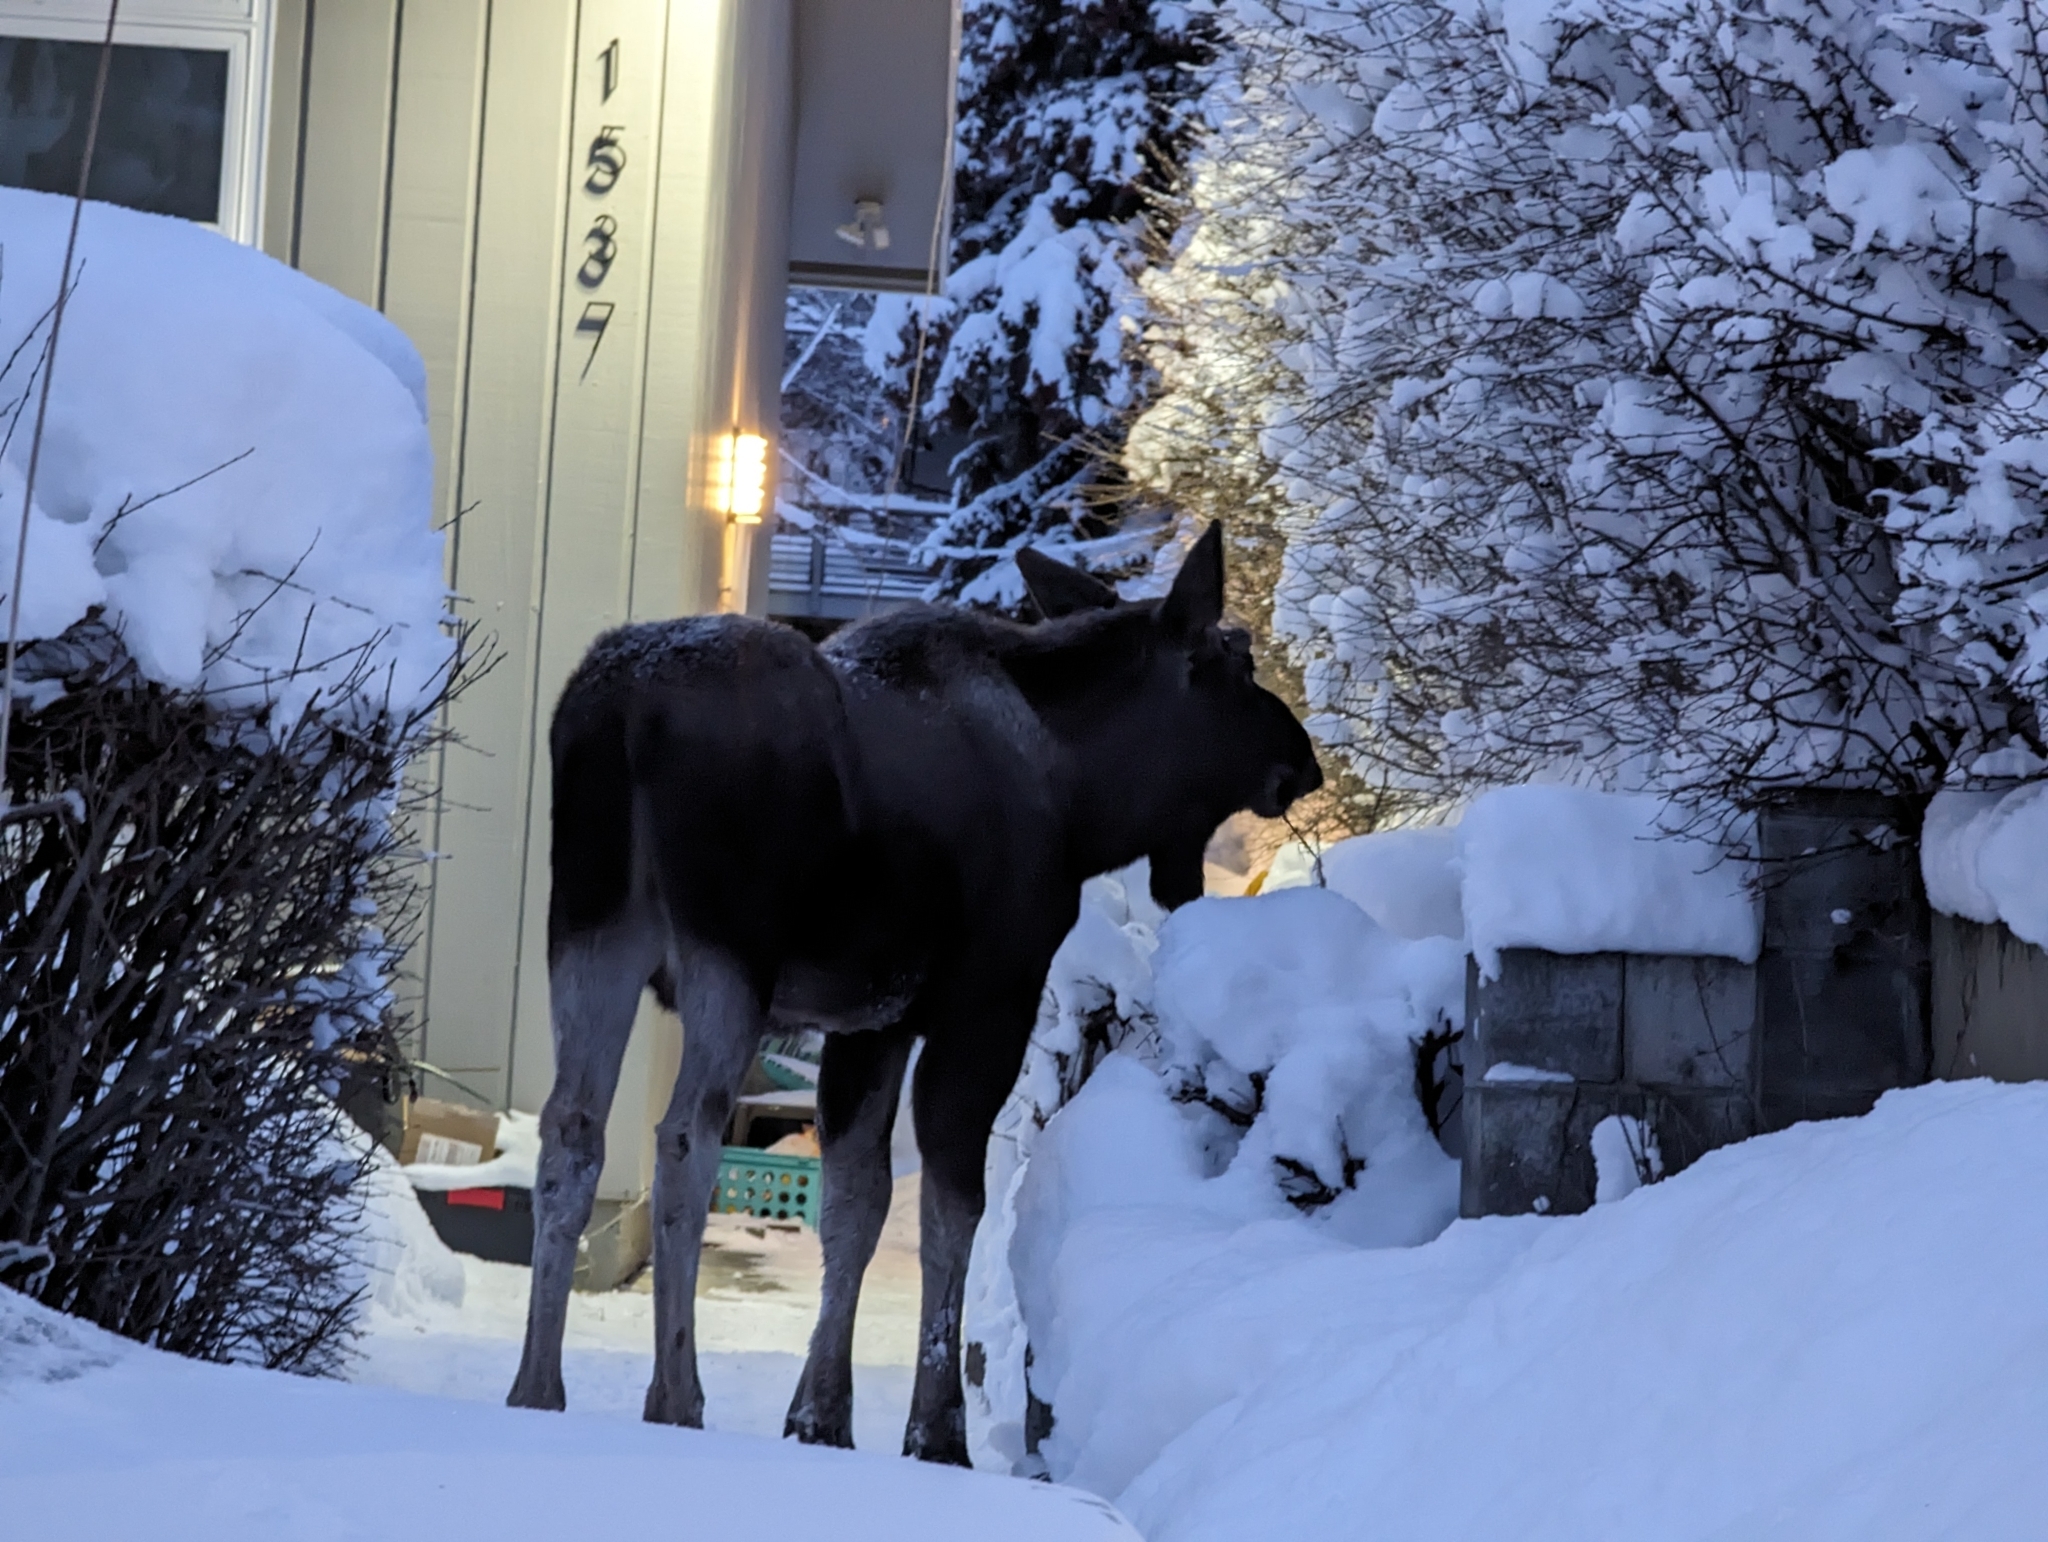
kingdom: Animalia
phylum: Chordata
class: Mammalia
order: Artiodactyla
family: Cervidae
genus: Alces
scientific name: Alces alces
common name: Moose
